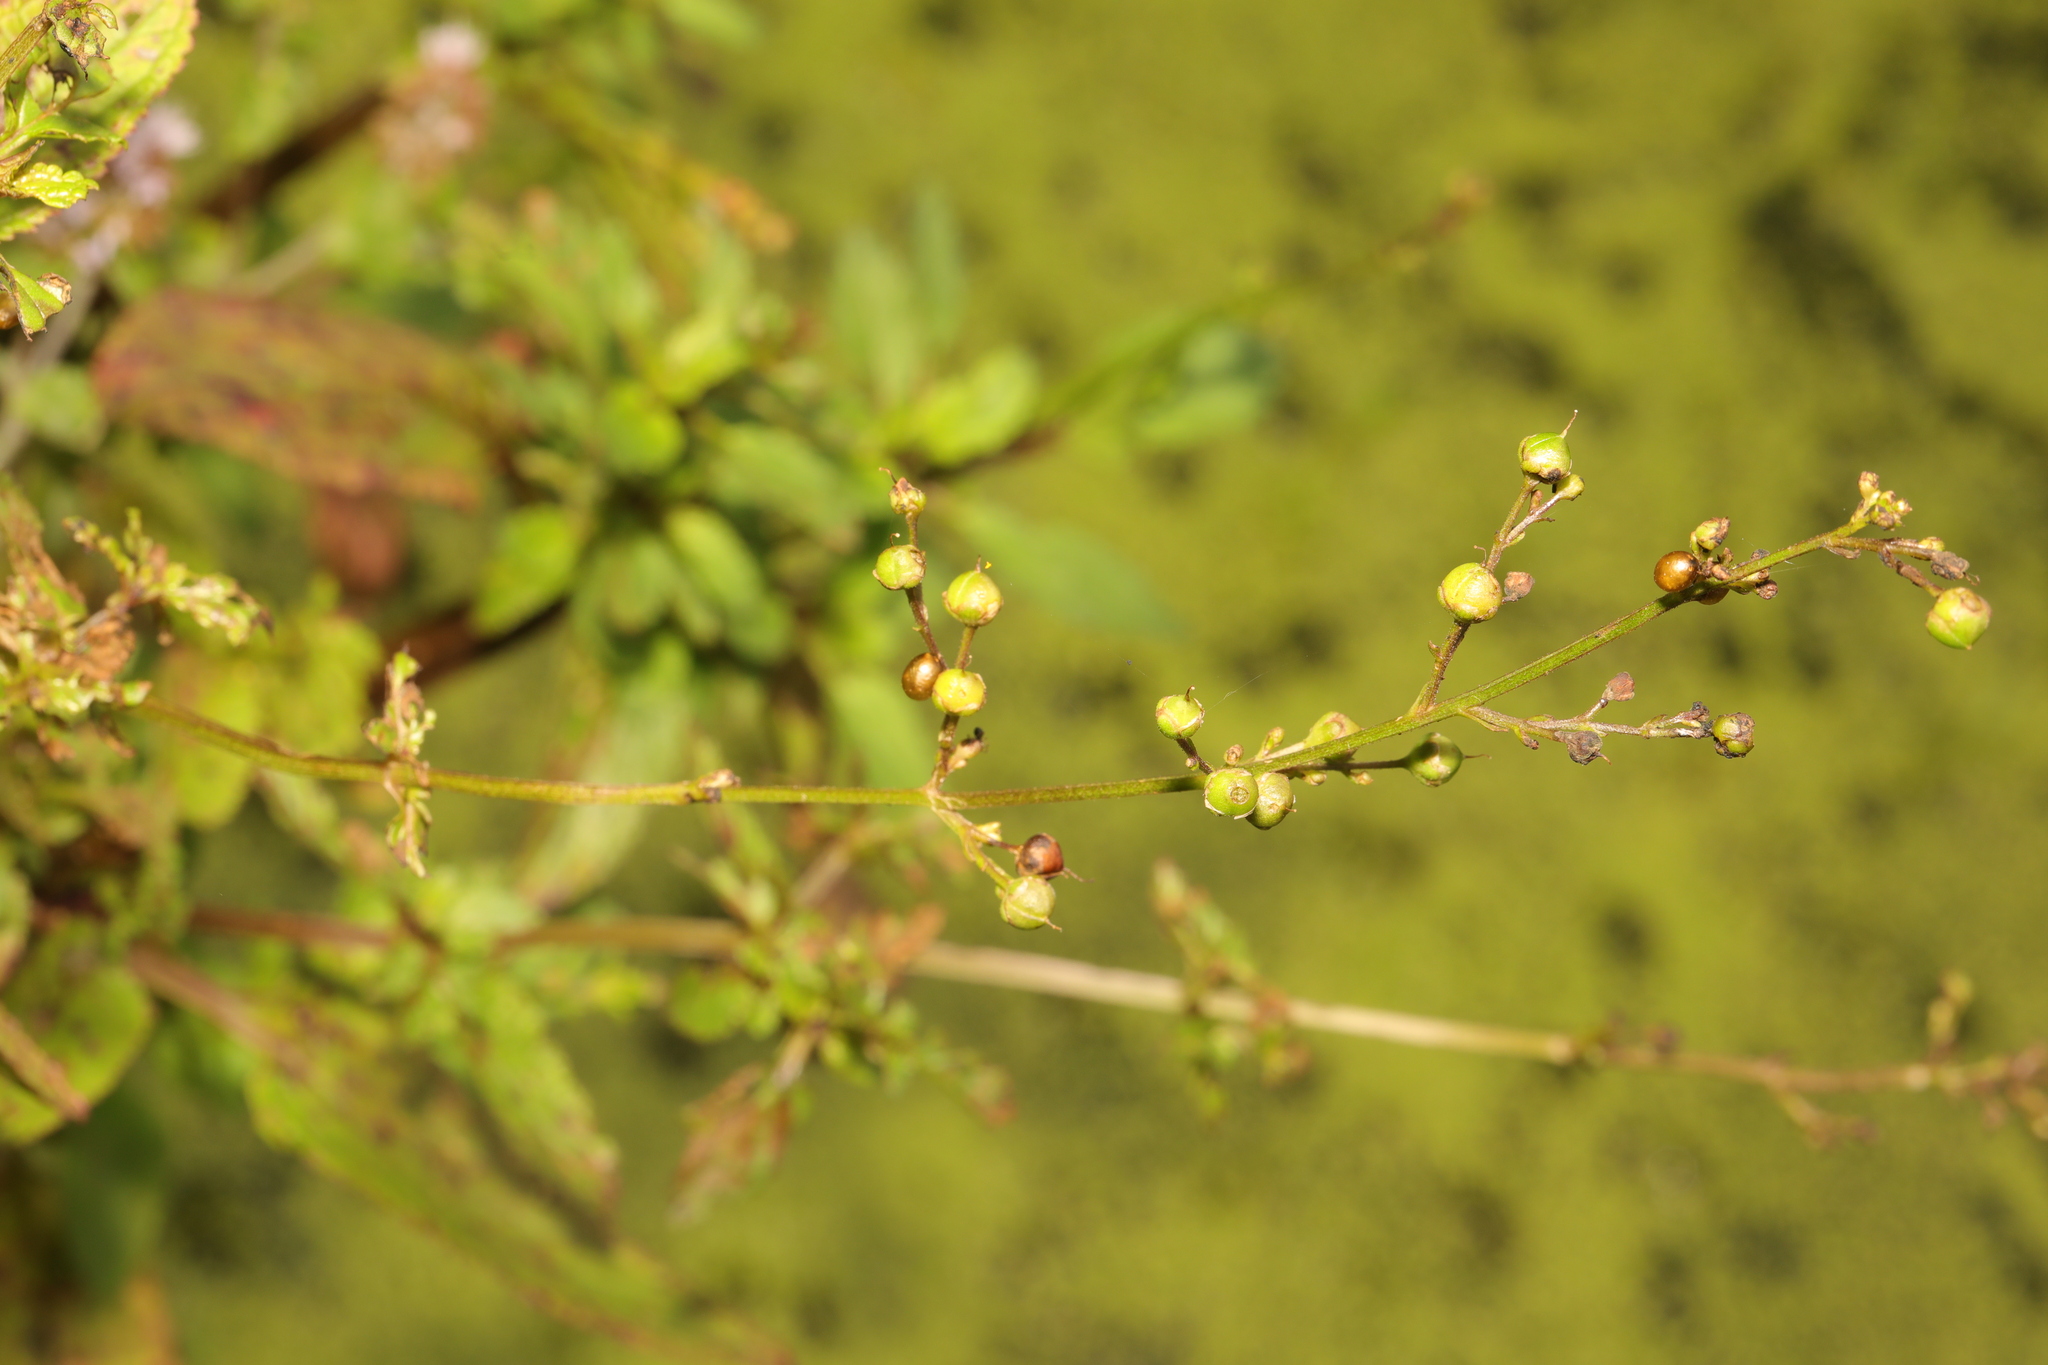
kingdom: Plantae
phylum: Tracheophyta
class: Magnoliopsida
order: Lamiales
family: Scrophulariaceae
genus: Scrophularia
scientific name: Scrophularia auriculata
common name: Water betony
